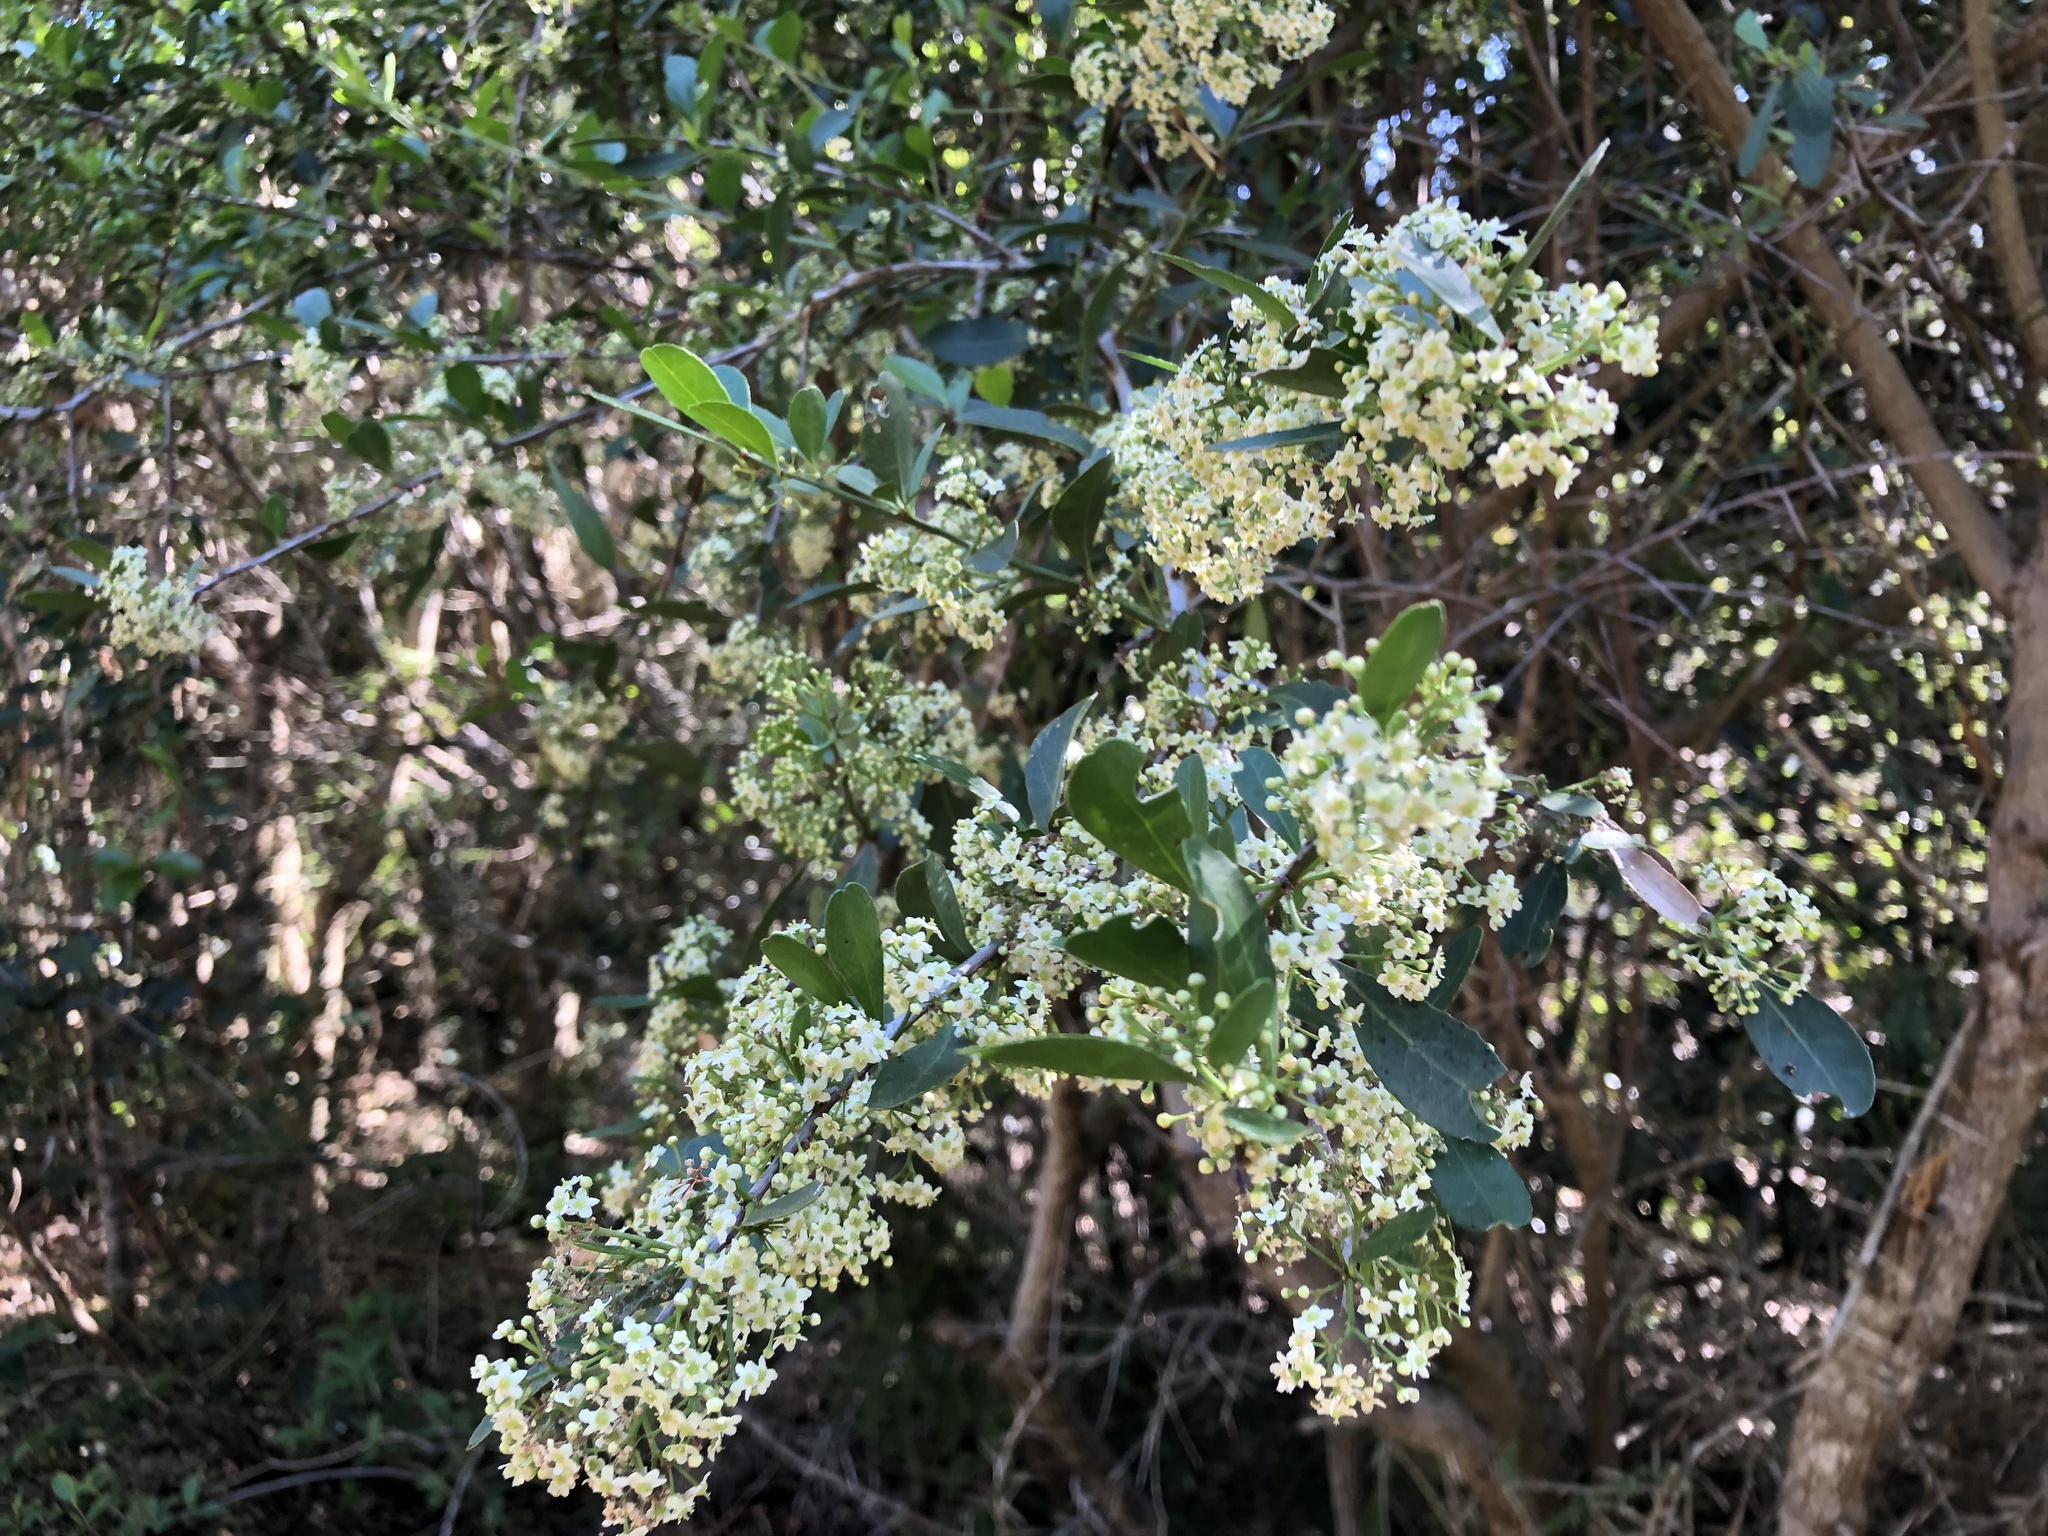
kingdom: Plantae
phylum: Tracheophyta
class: Magnoliopsida
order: Celastrales
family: Celastraceae
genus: Gymnosporia
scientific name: Gymnosporia buxifolia
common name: Common spike-thorn
